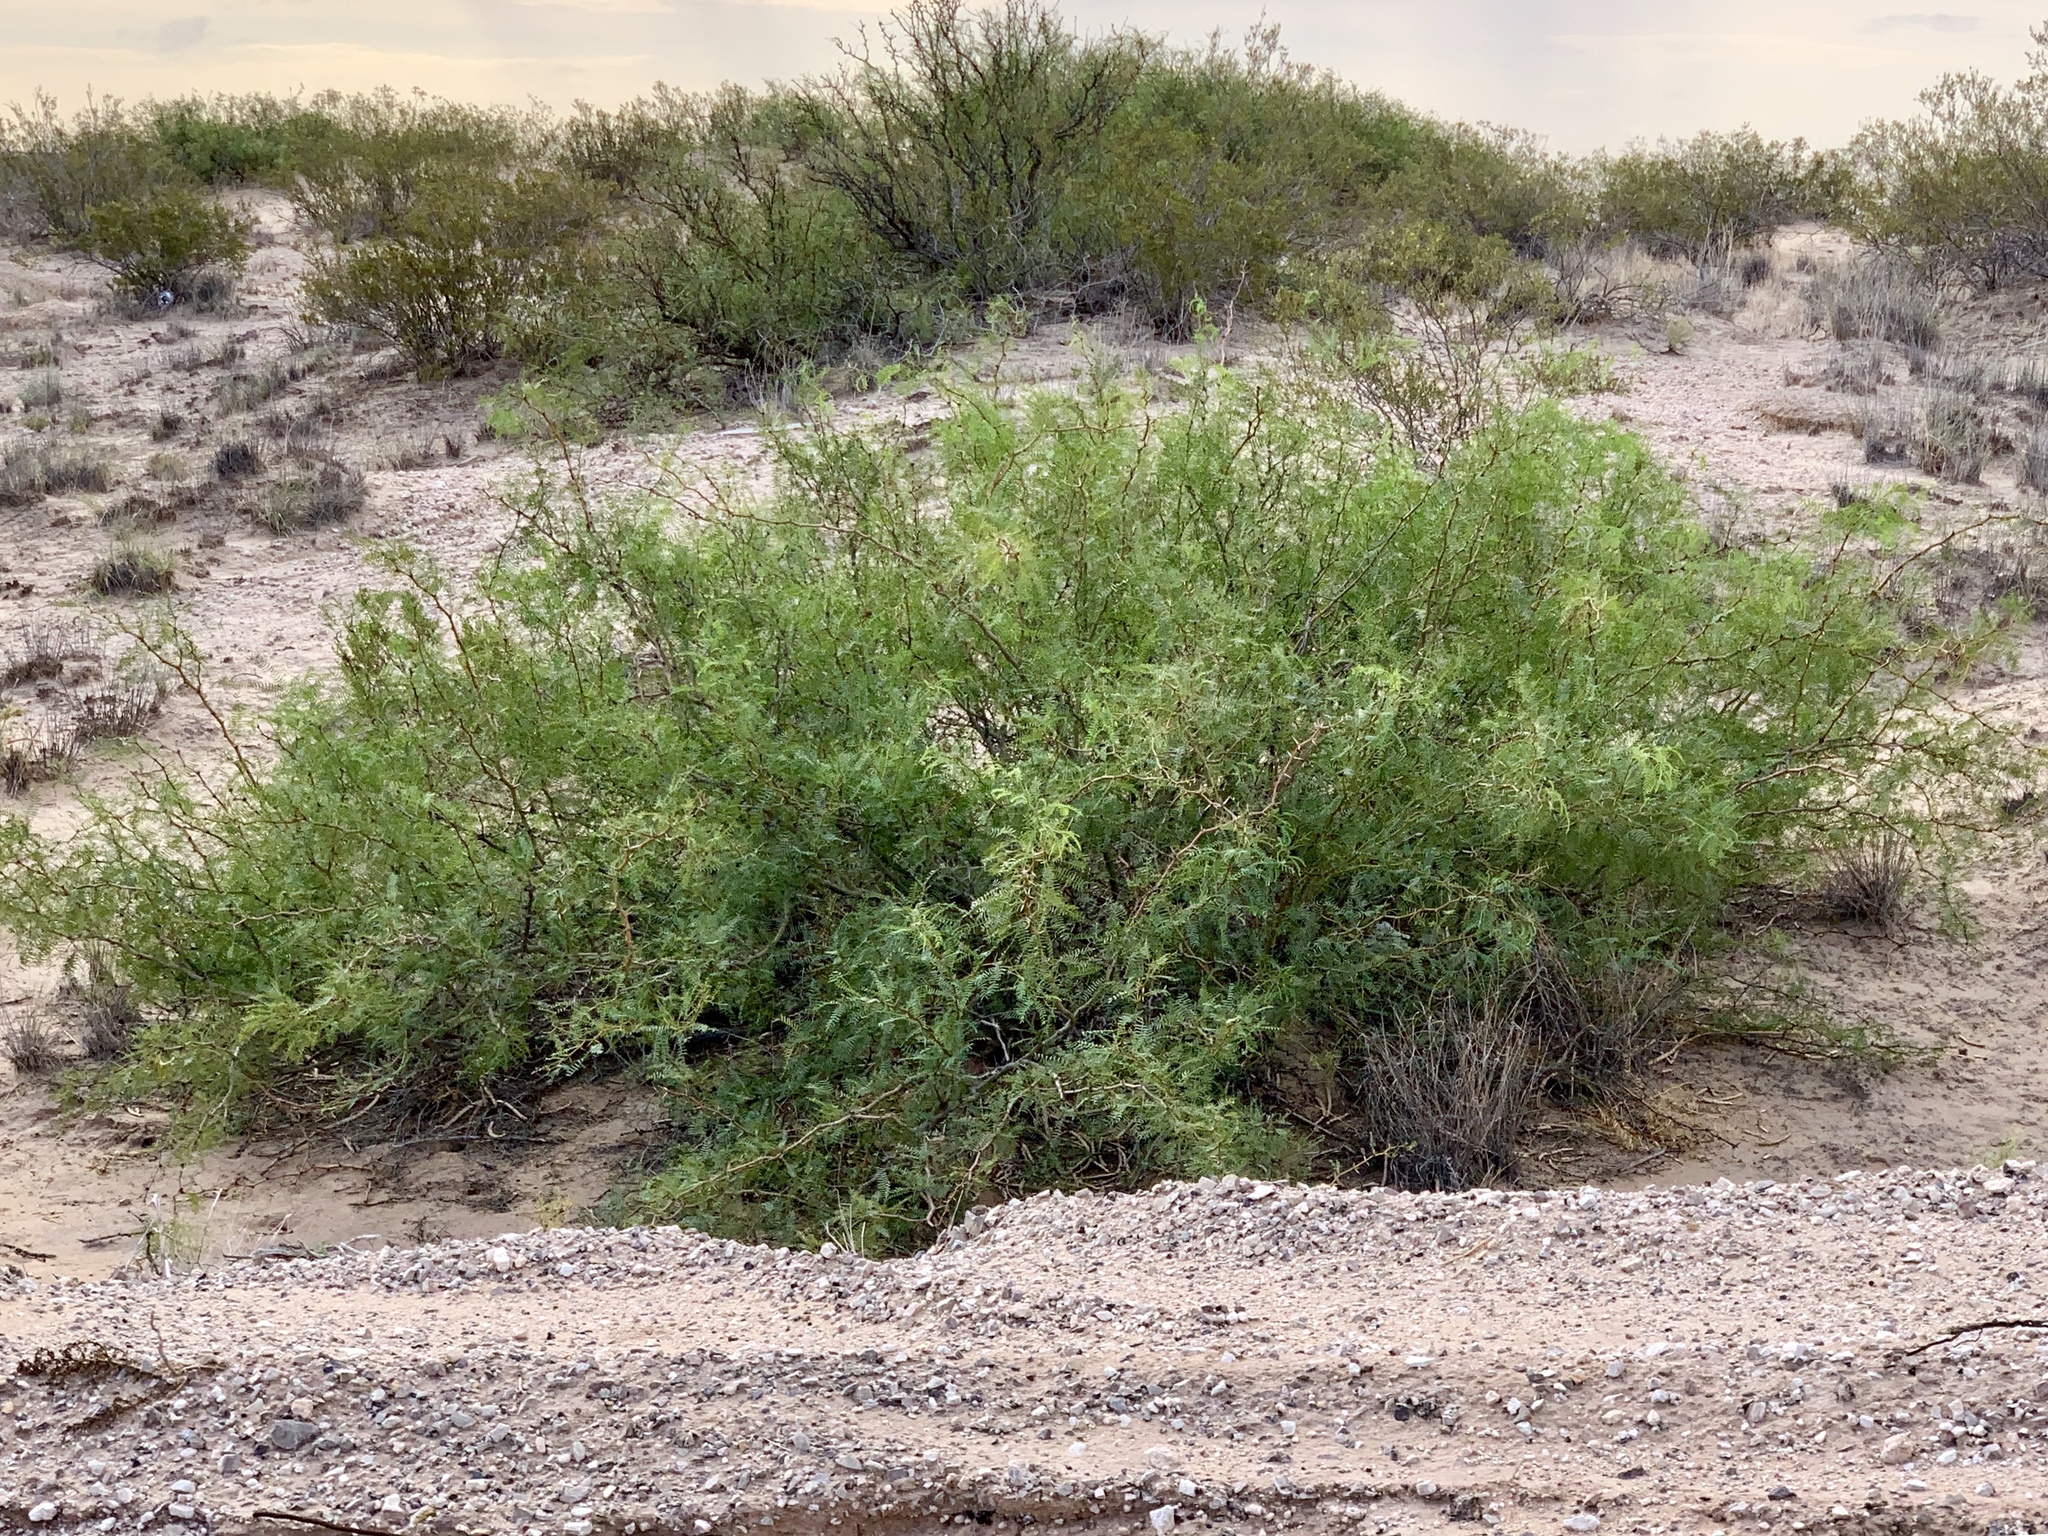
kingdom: Plantae
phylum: Tracheophyta
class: Magnoliopsida
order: Fabales
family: Fabaceae
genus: Prosopis
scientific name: Prosopis glandulosa
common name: Honey mesquite
